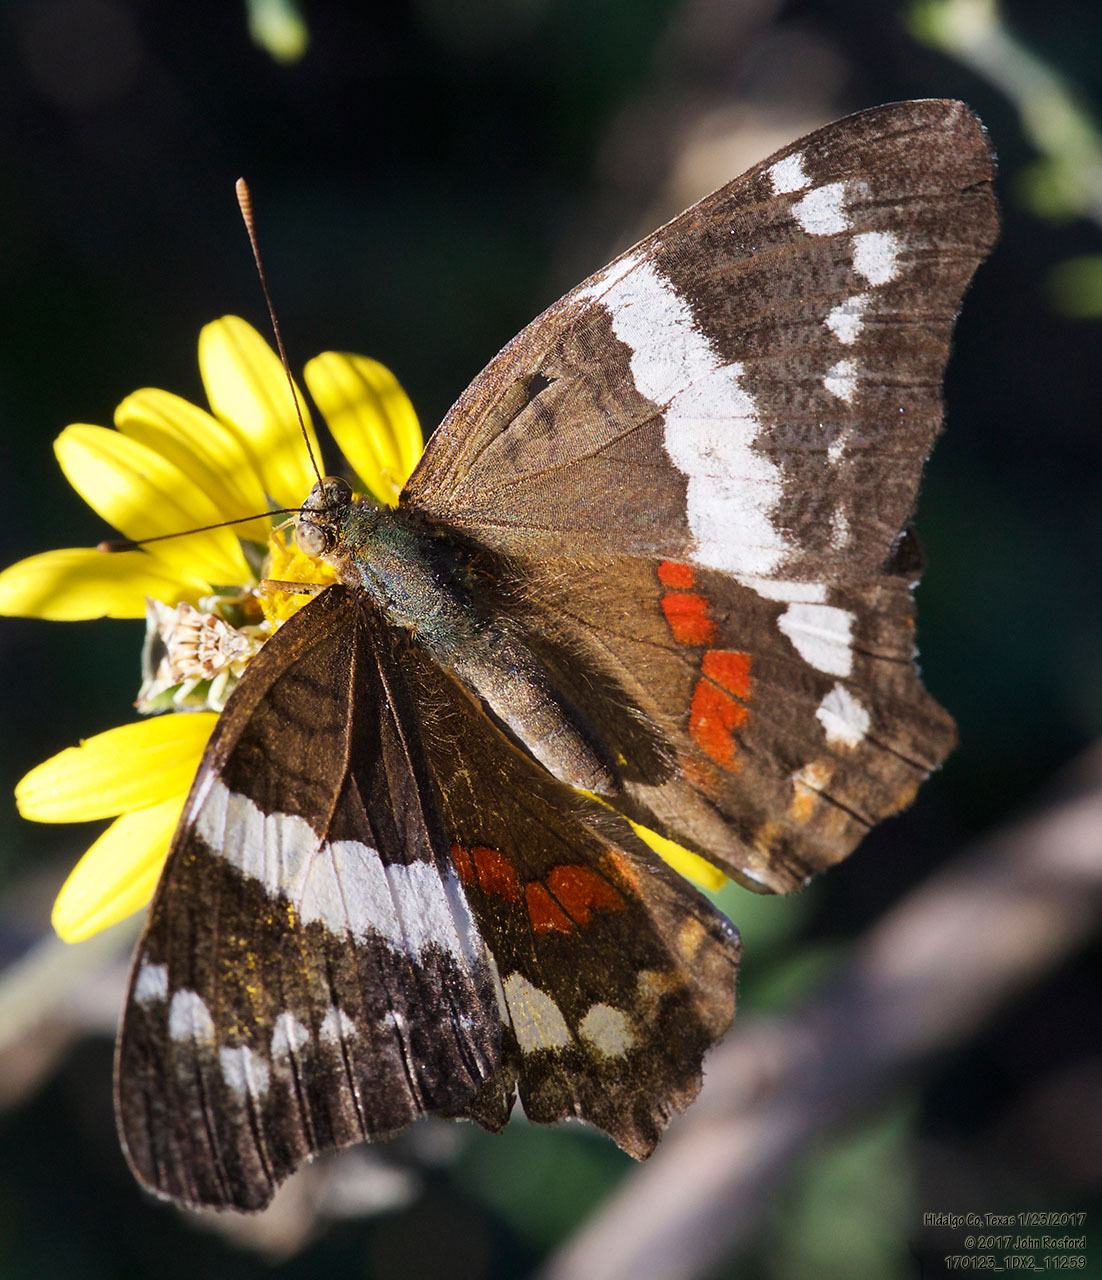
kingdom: Animalia
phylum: Arthropoda
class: Insecta
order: Lepidoptera
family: Nymphalidae
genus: Anartia
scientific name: Anartia fatima
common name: Banded peacock
